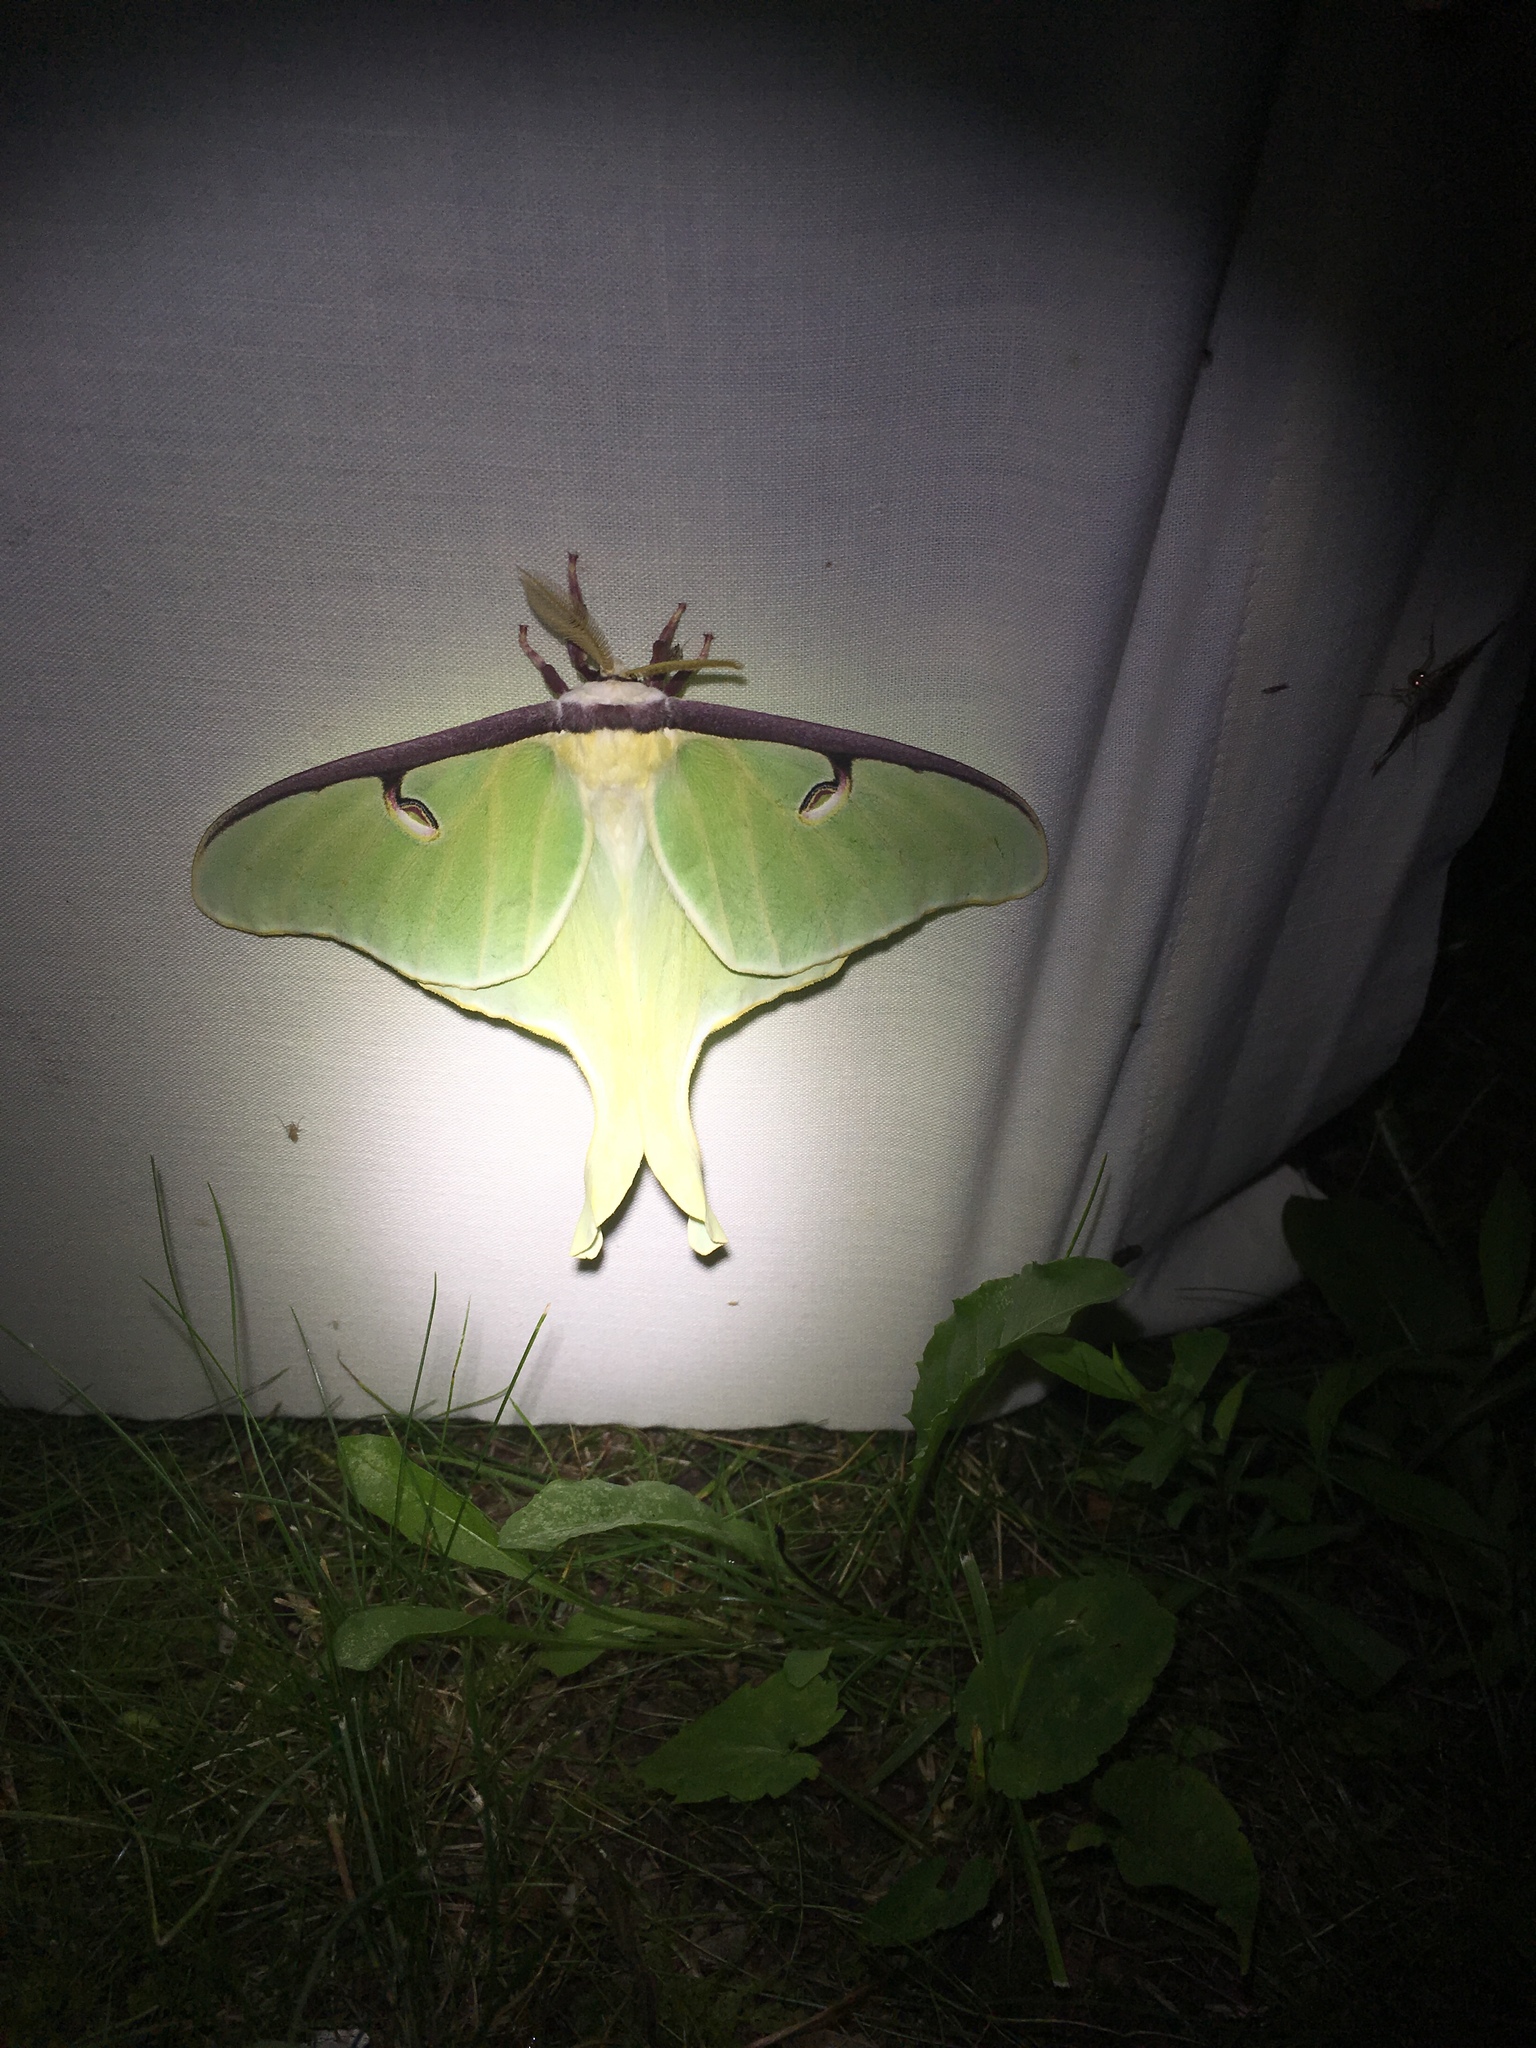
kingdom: Animalia
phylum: Arthropoda
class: Insecta
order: Lepidoptera
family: Saturniidae
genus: Actias
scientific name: Actias luna
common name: Luna moth
